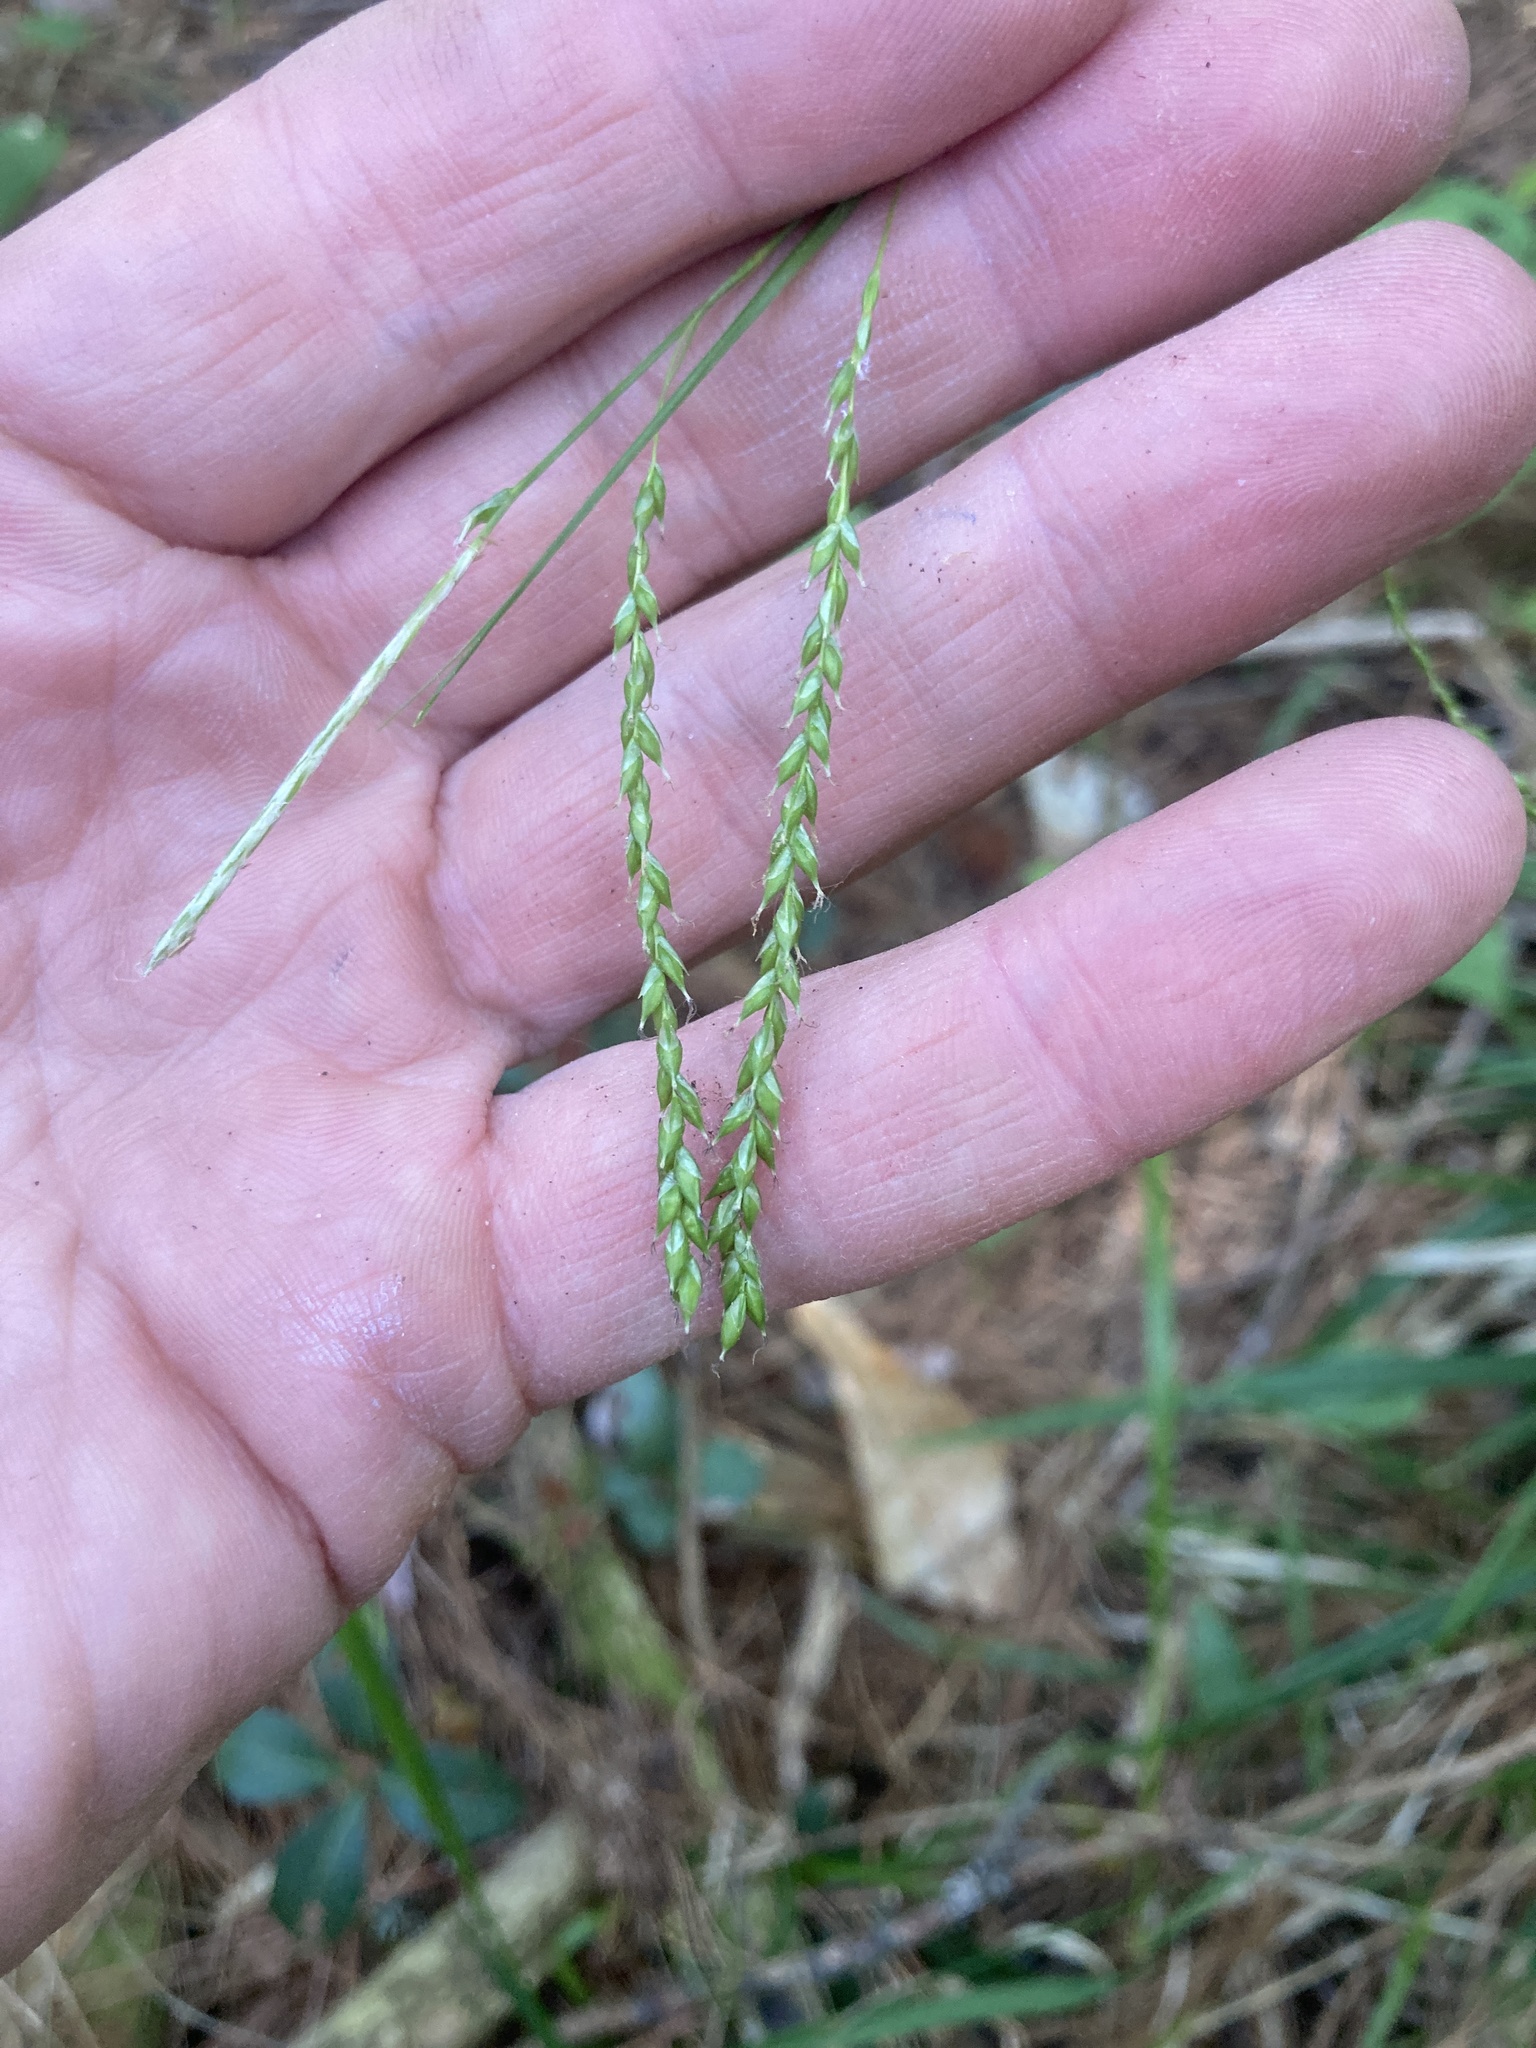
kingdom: Plantae
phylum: Tracheophyta
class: Liliopsida
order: Poales
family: Cyperaceae
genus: Carex
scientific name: Carex arctata
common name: Black sedge
